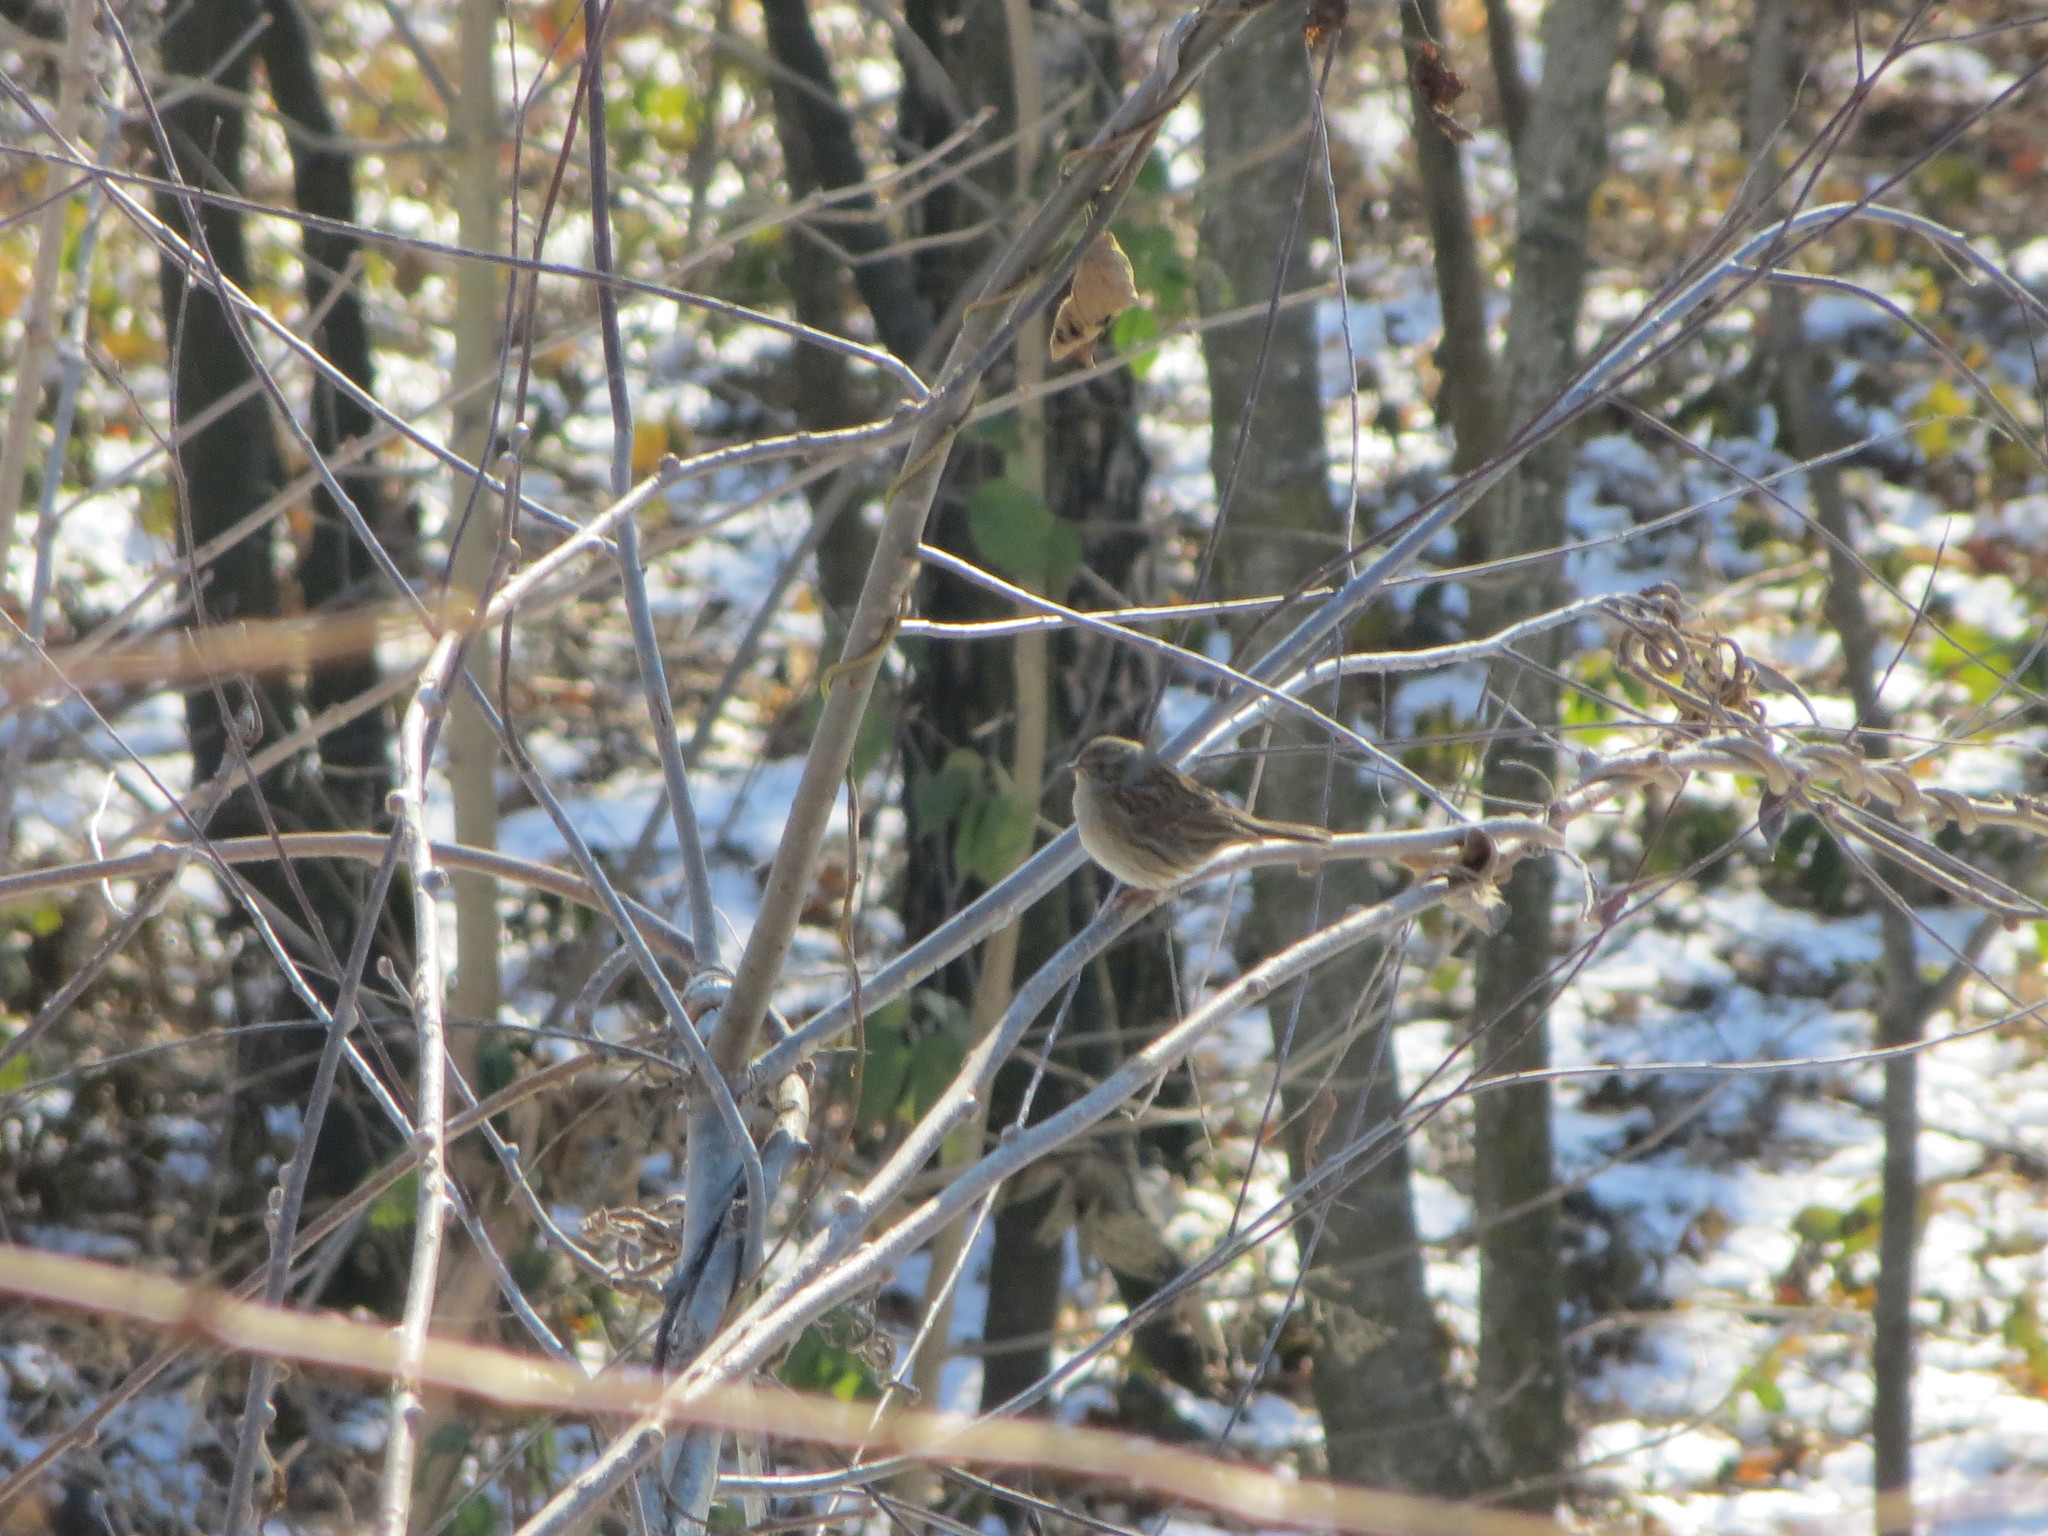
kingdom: Animalia
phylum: Chordata
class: Aves
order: Passeriformes
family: Prunellidae
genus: Prunella
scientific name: Prunella modularis
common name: Dunnock
